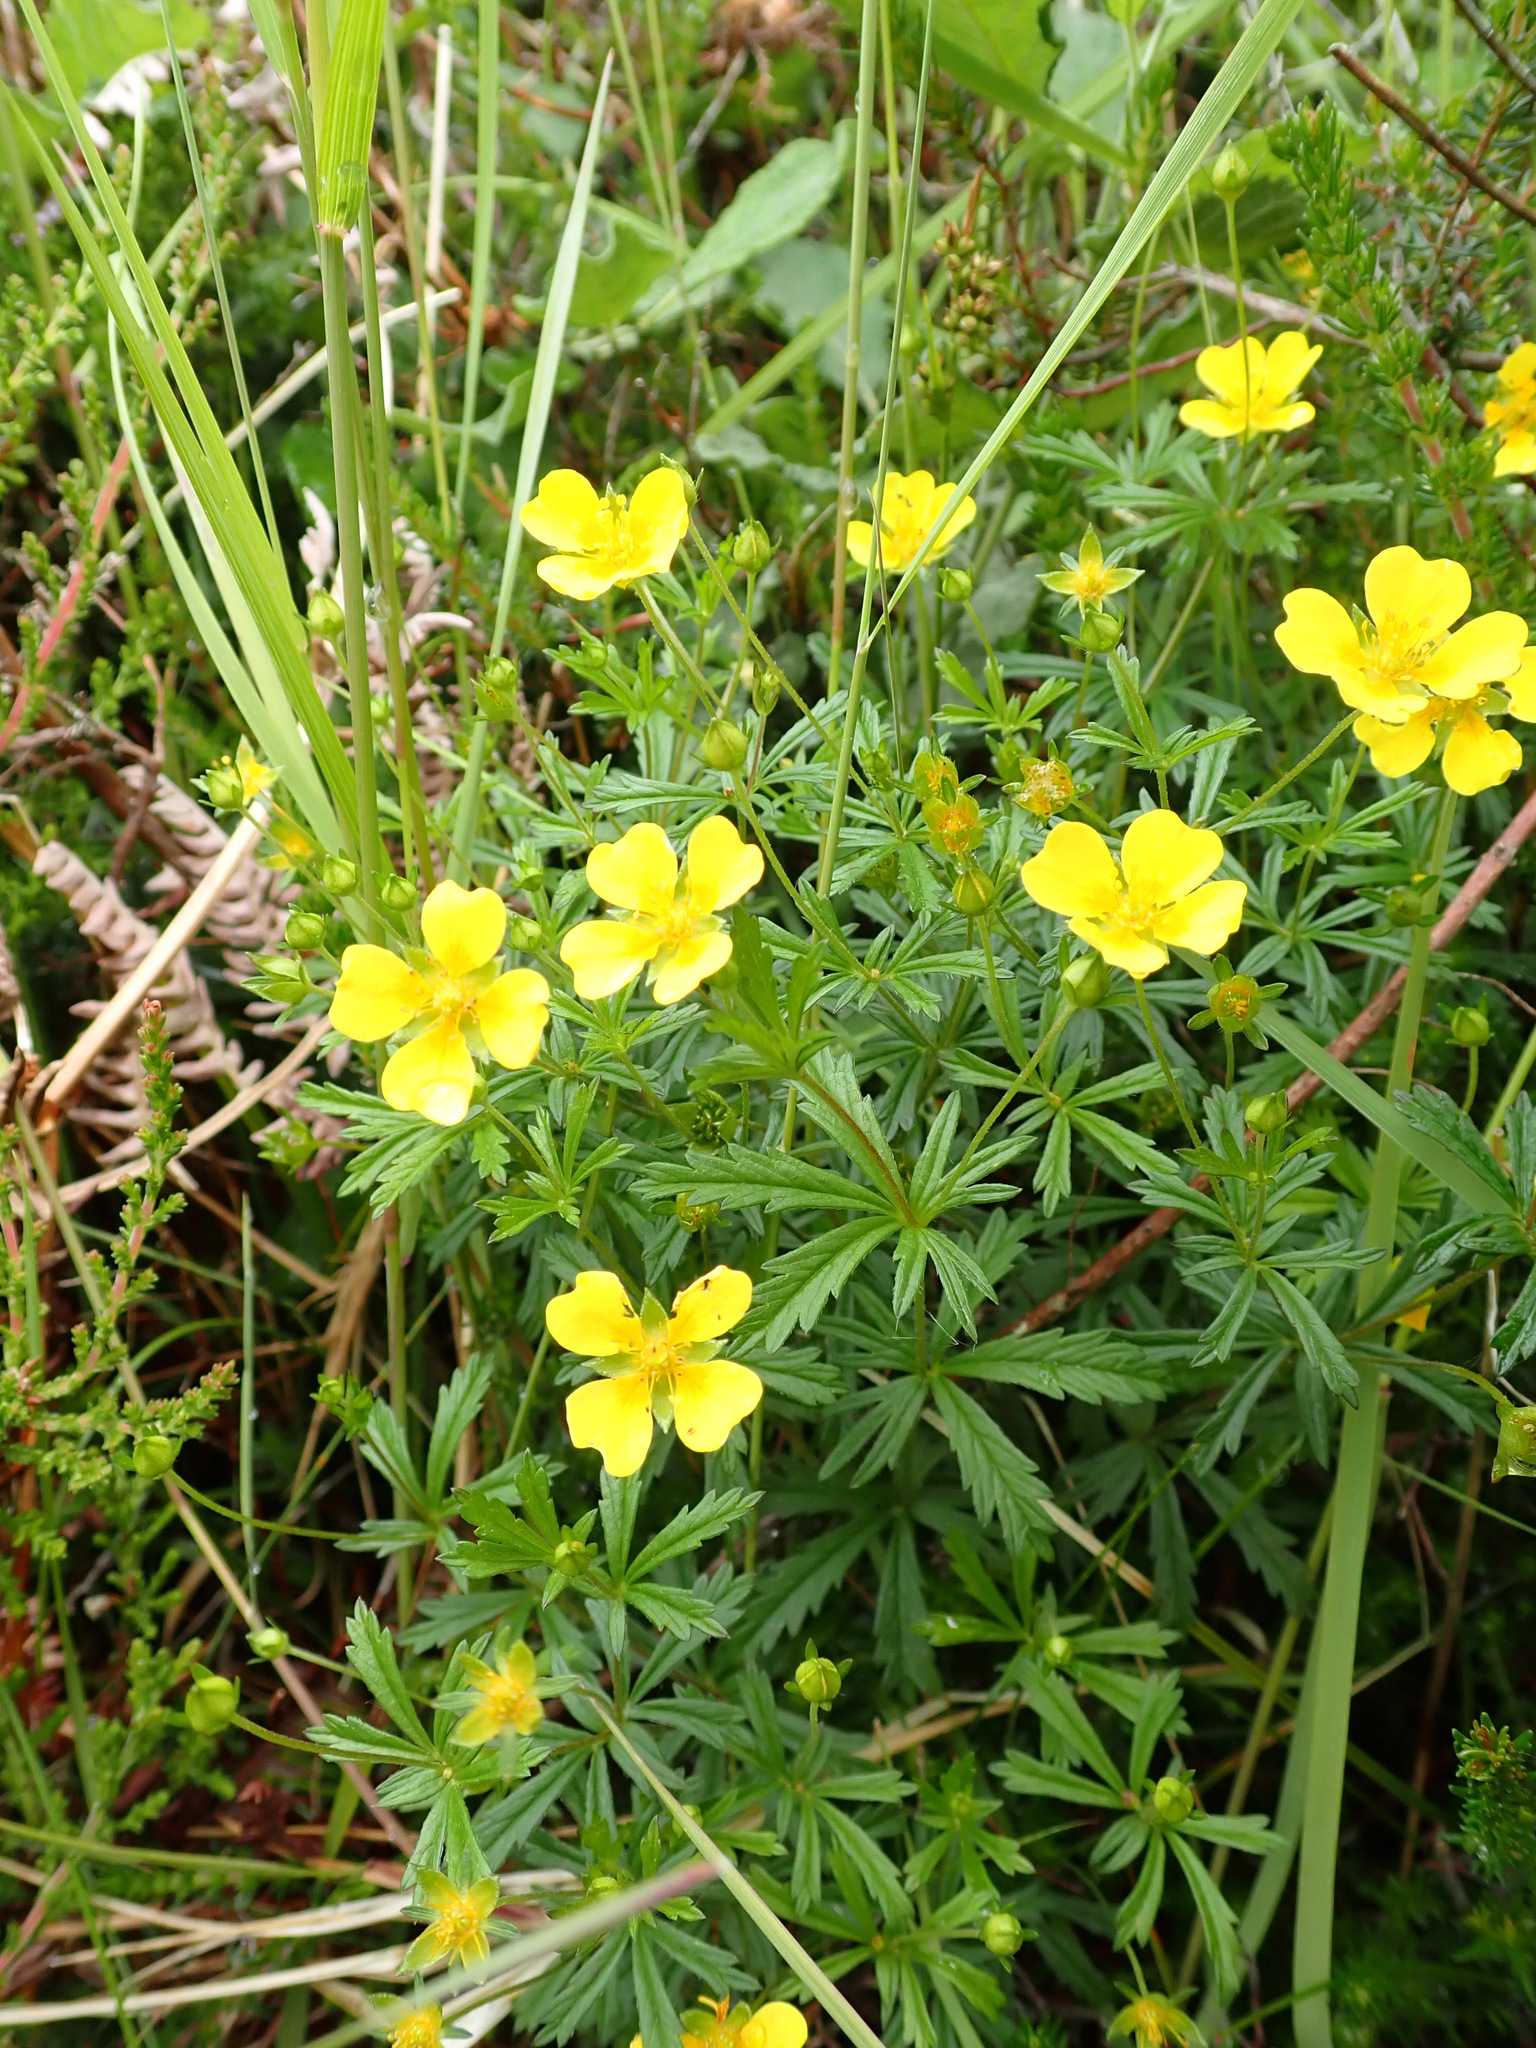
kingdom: Plantae
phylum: Tracheophyta
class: Magnoliopsida
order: Rosales
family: Rosaceae
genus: Potentilla
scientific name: Potentilla erecta
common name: Tormentil
